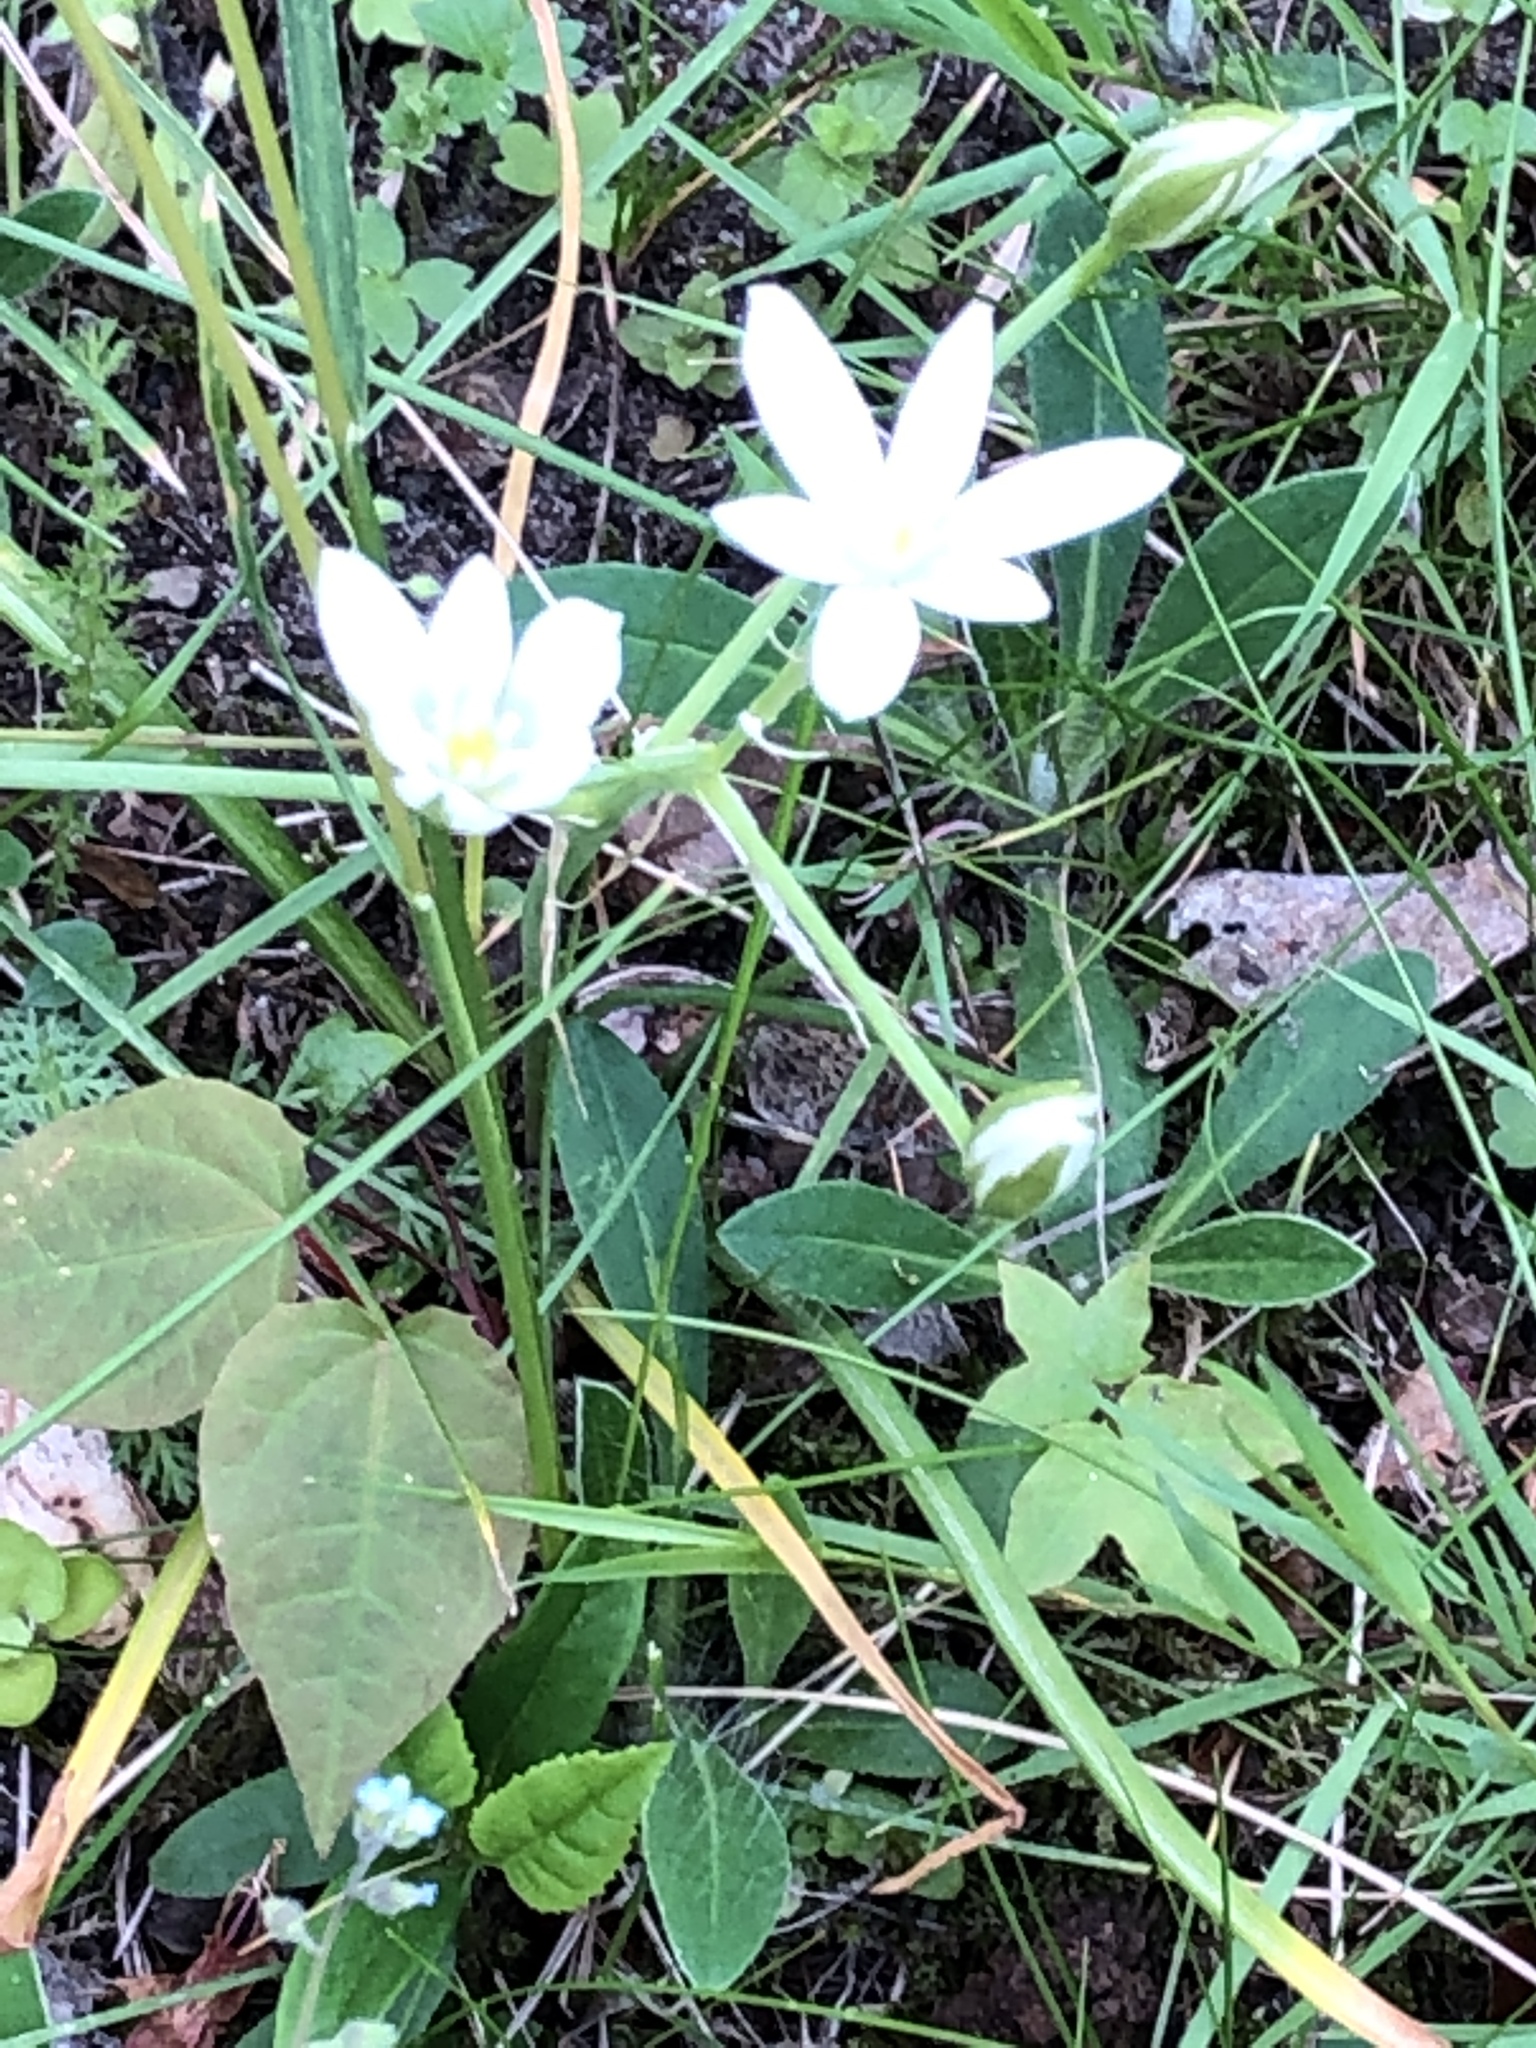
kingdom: Plantae
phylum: Tracheophyta
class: Liliopsida
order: Asparagales
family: Asparagaceae
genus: Ornithogalum
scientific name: Ornithogalum umbellatum
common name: Garden star-of-bethlehem
